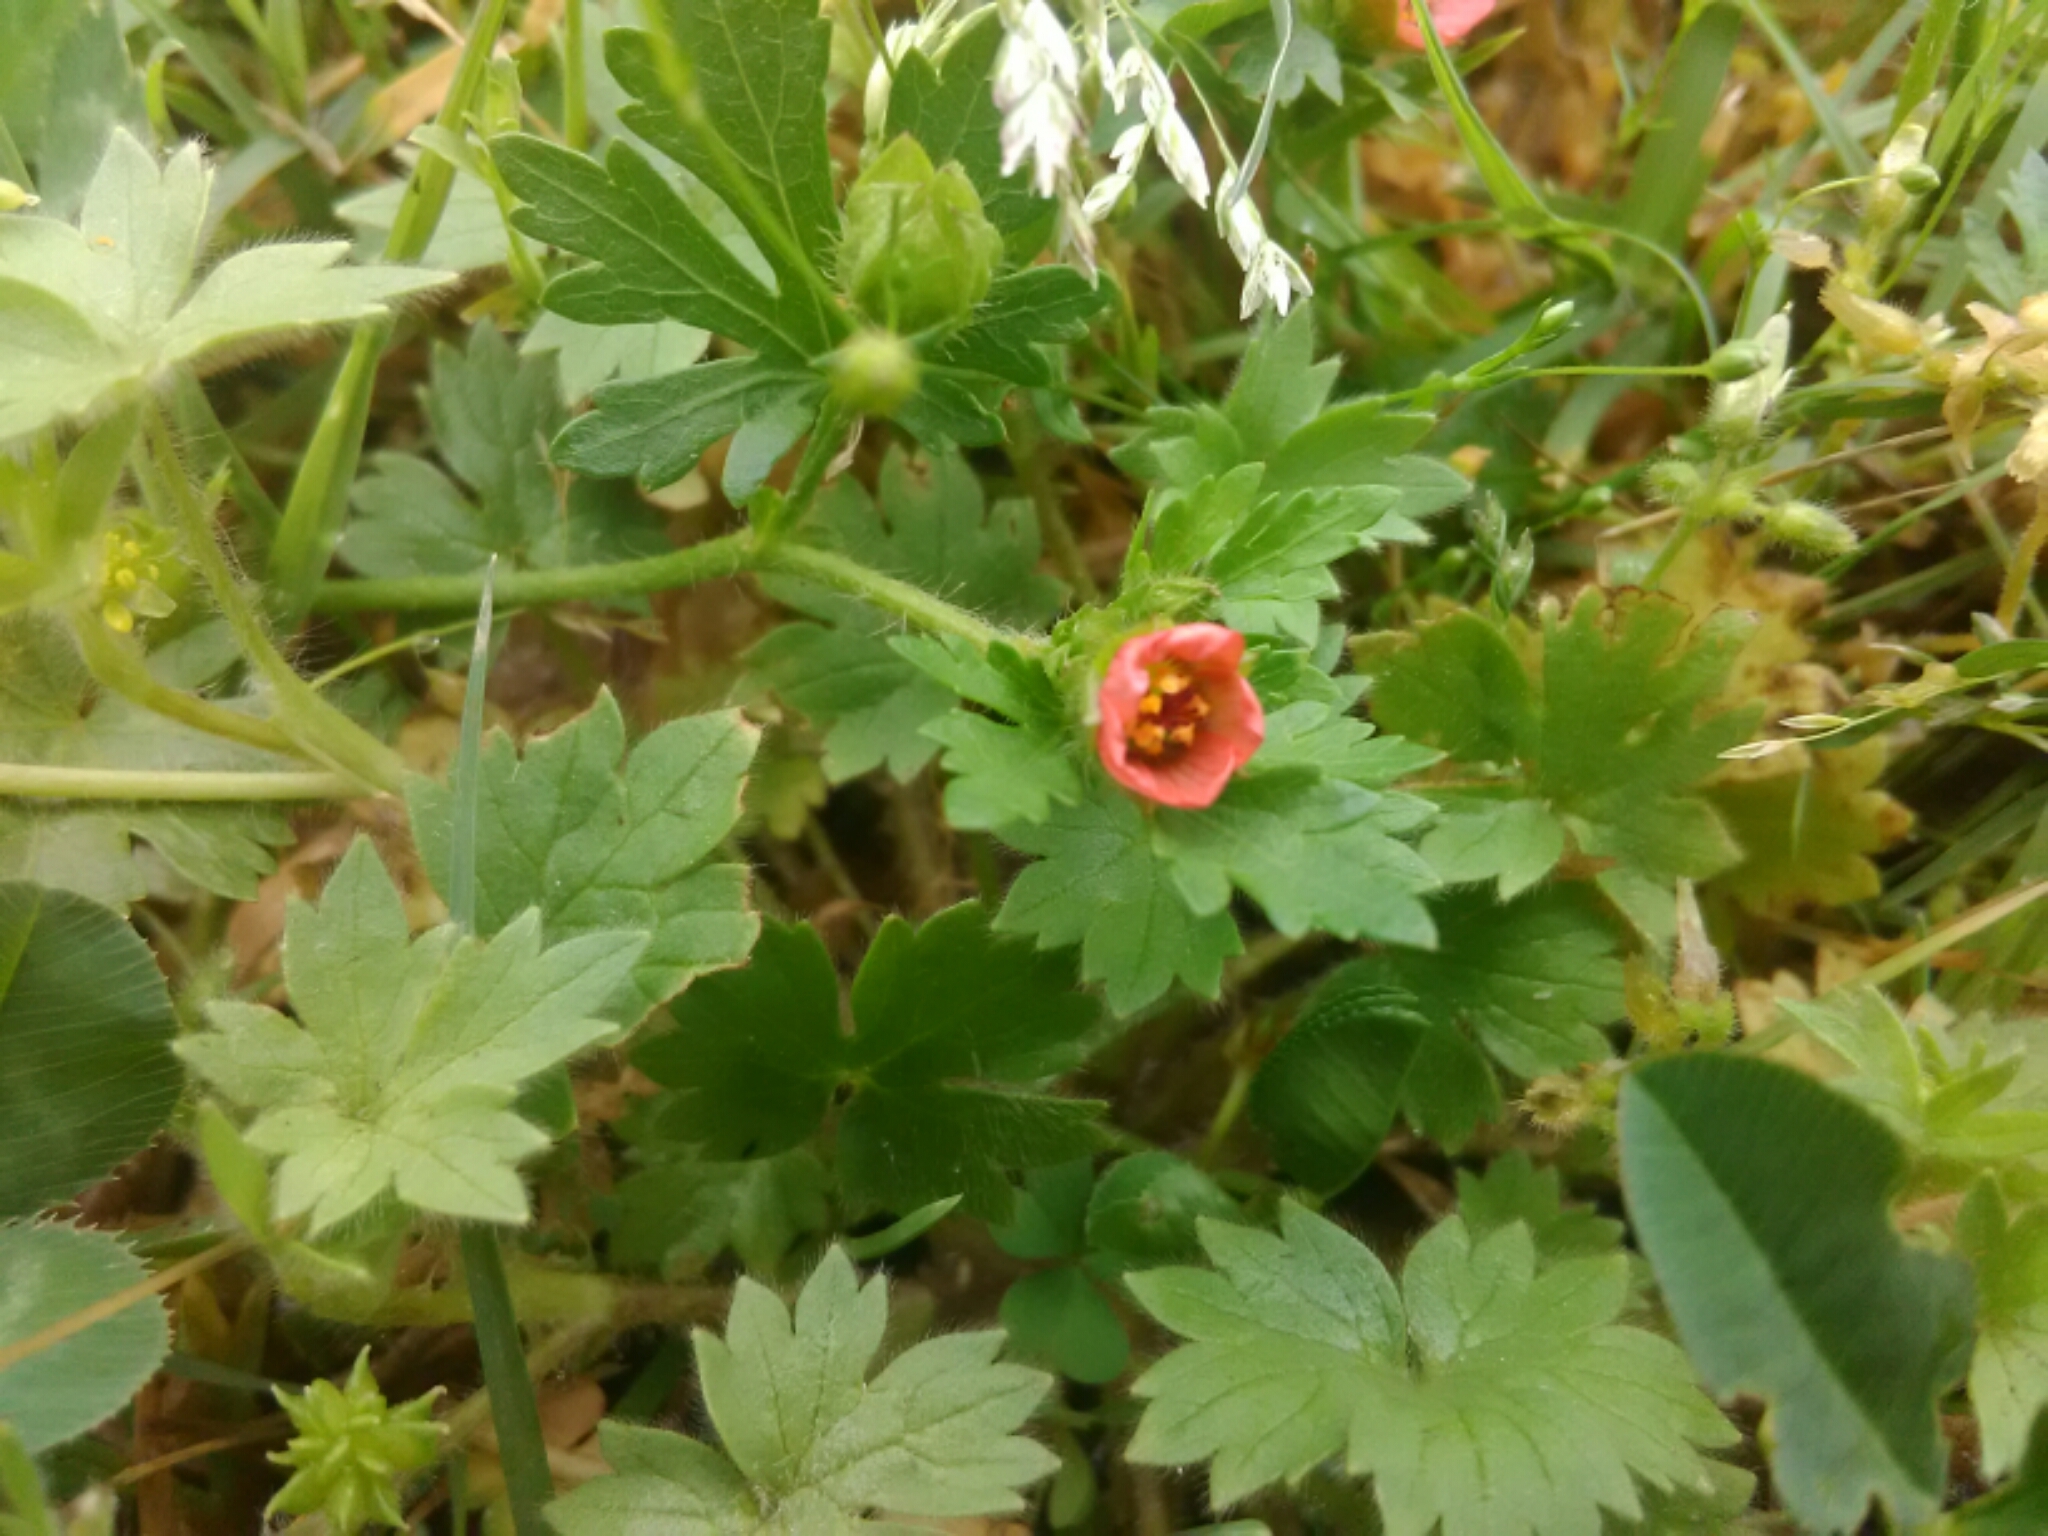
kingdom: Plantae
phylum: Tracheophyta
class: Magnoliopsida
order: Malvales
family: Malvaceae
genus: Modiola
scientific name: Modiola caroliniana
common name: Carolina bristlemallow
